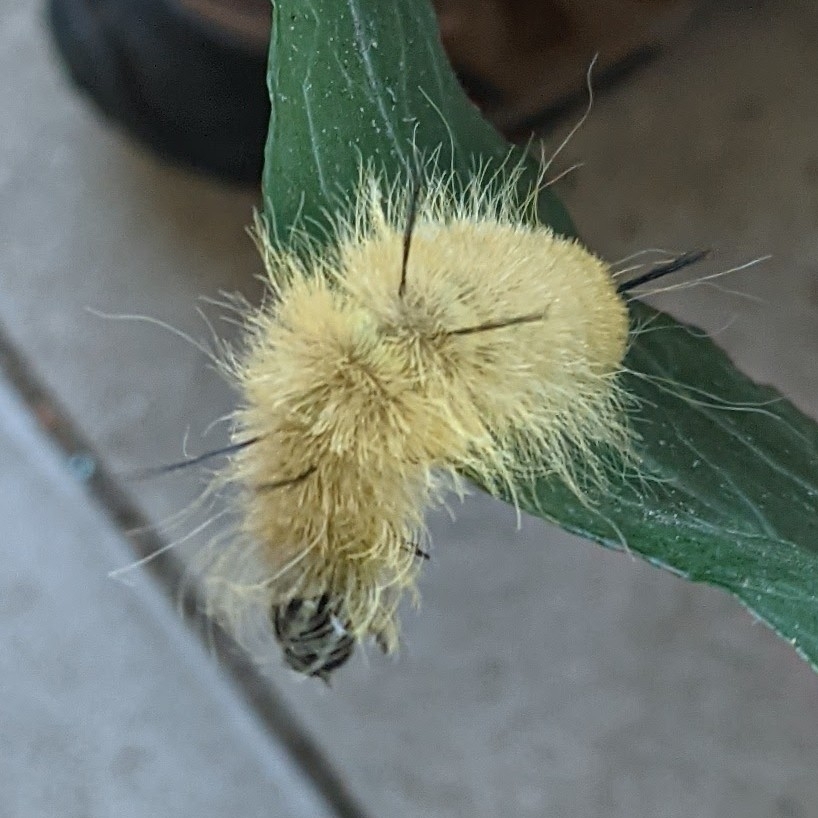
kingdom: Animalia
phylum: Arthropoda
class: Insecta
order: Lepidoptera
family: Noctuidae
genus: Acronicta
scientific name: Acronicta americana
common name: American dagger
